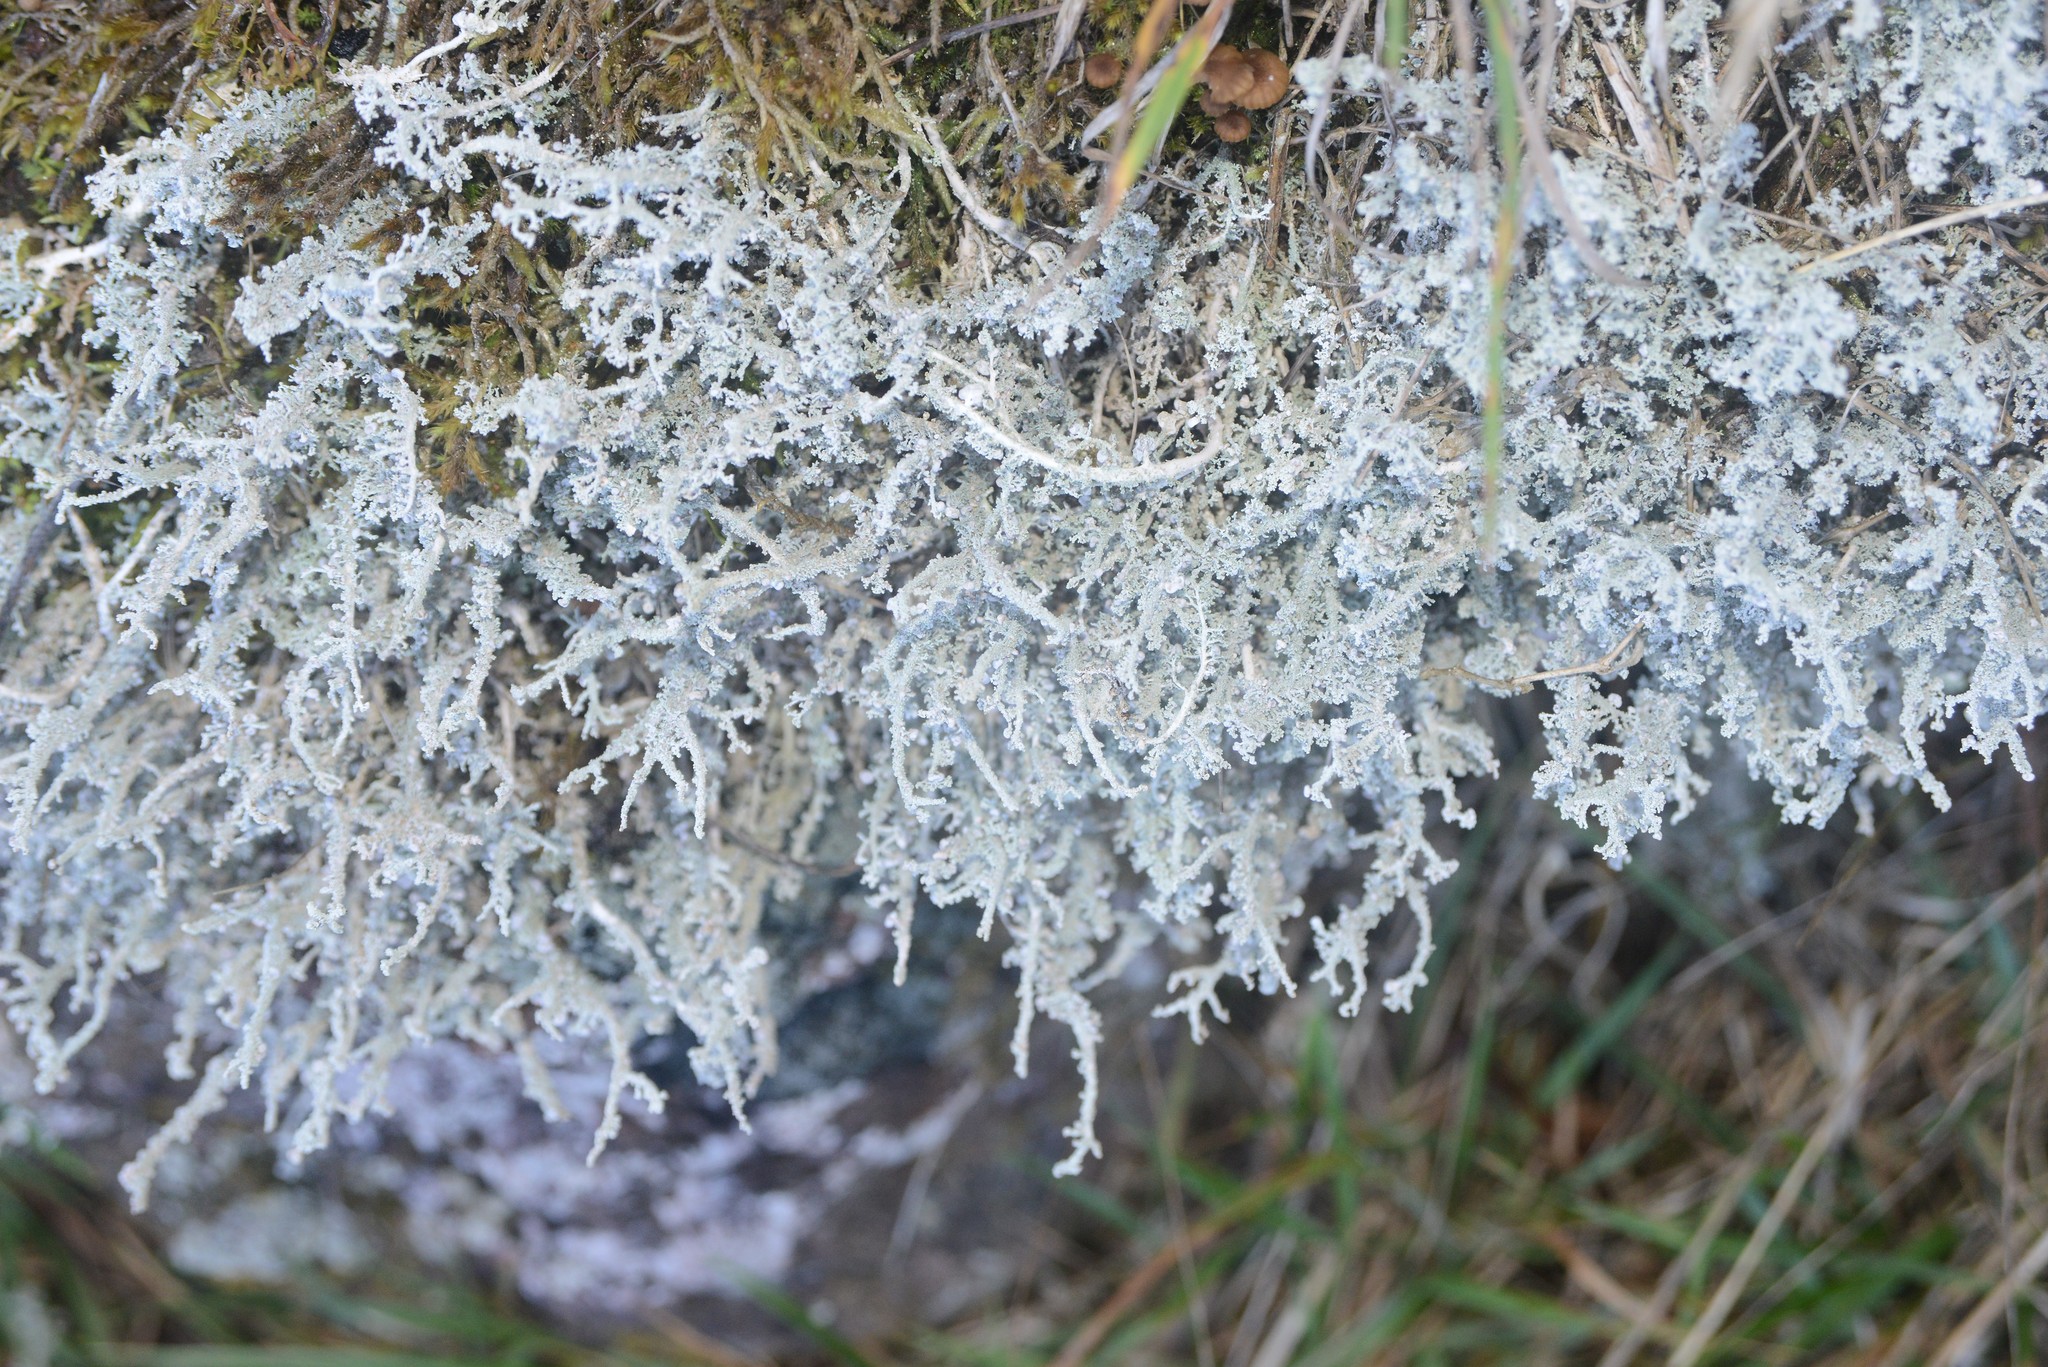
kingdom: Fungi
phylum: Ascomycota
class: Lecanoromycetes
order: Lecanorales
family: Stereocaulaceae
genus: Stereocaulon
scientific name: Stereocaulon ramulosum
